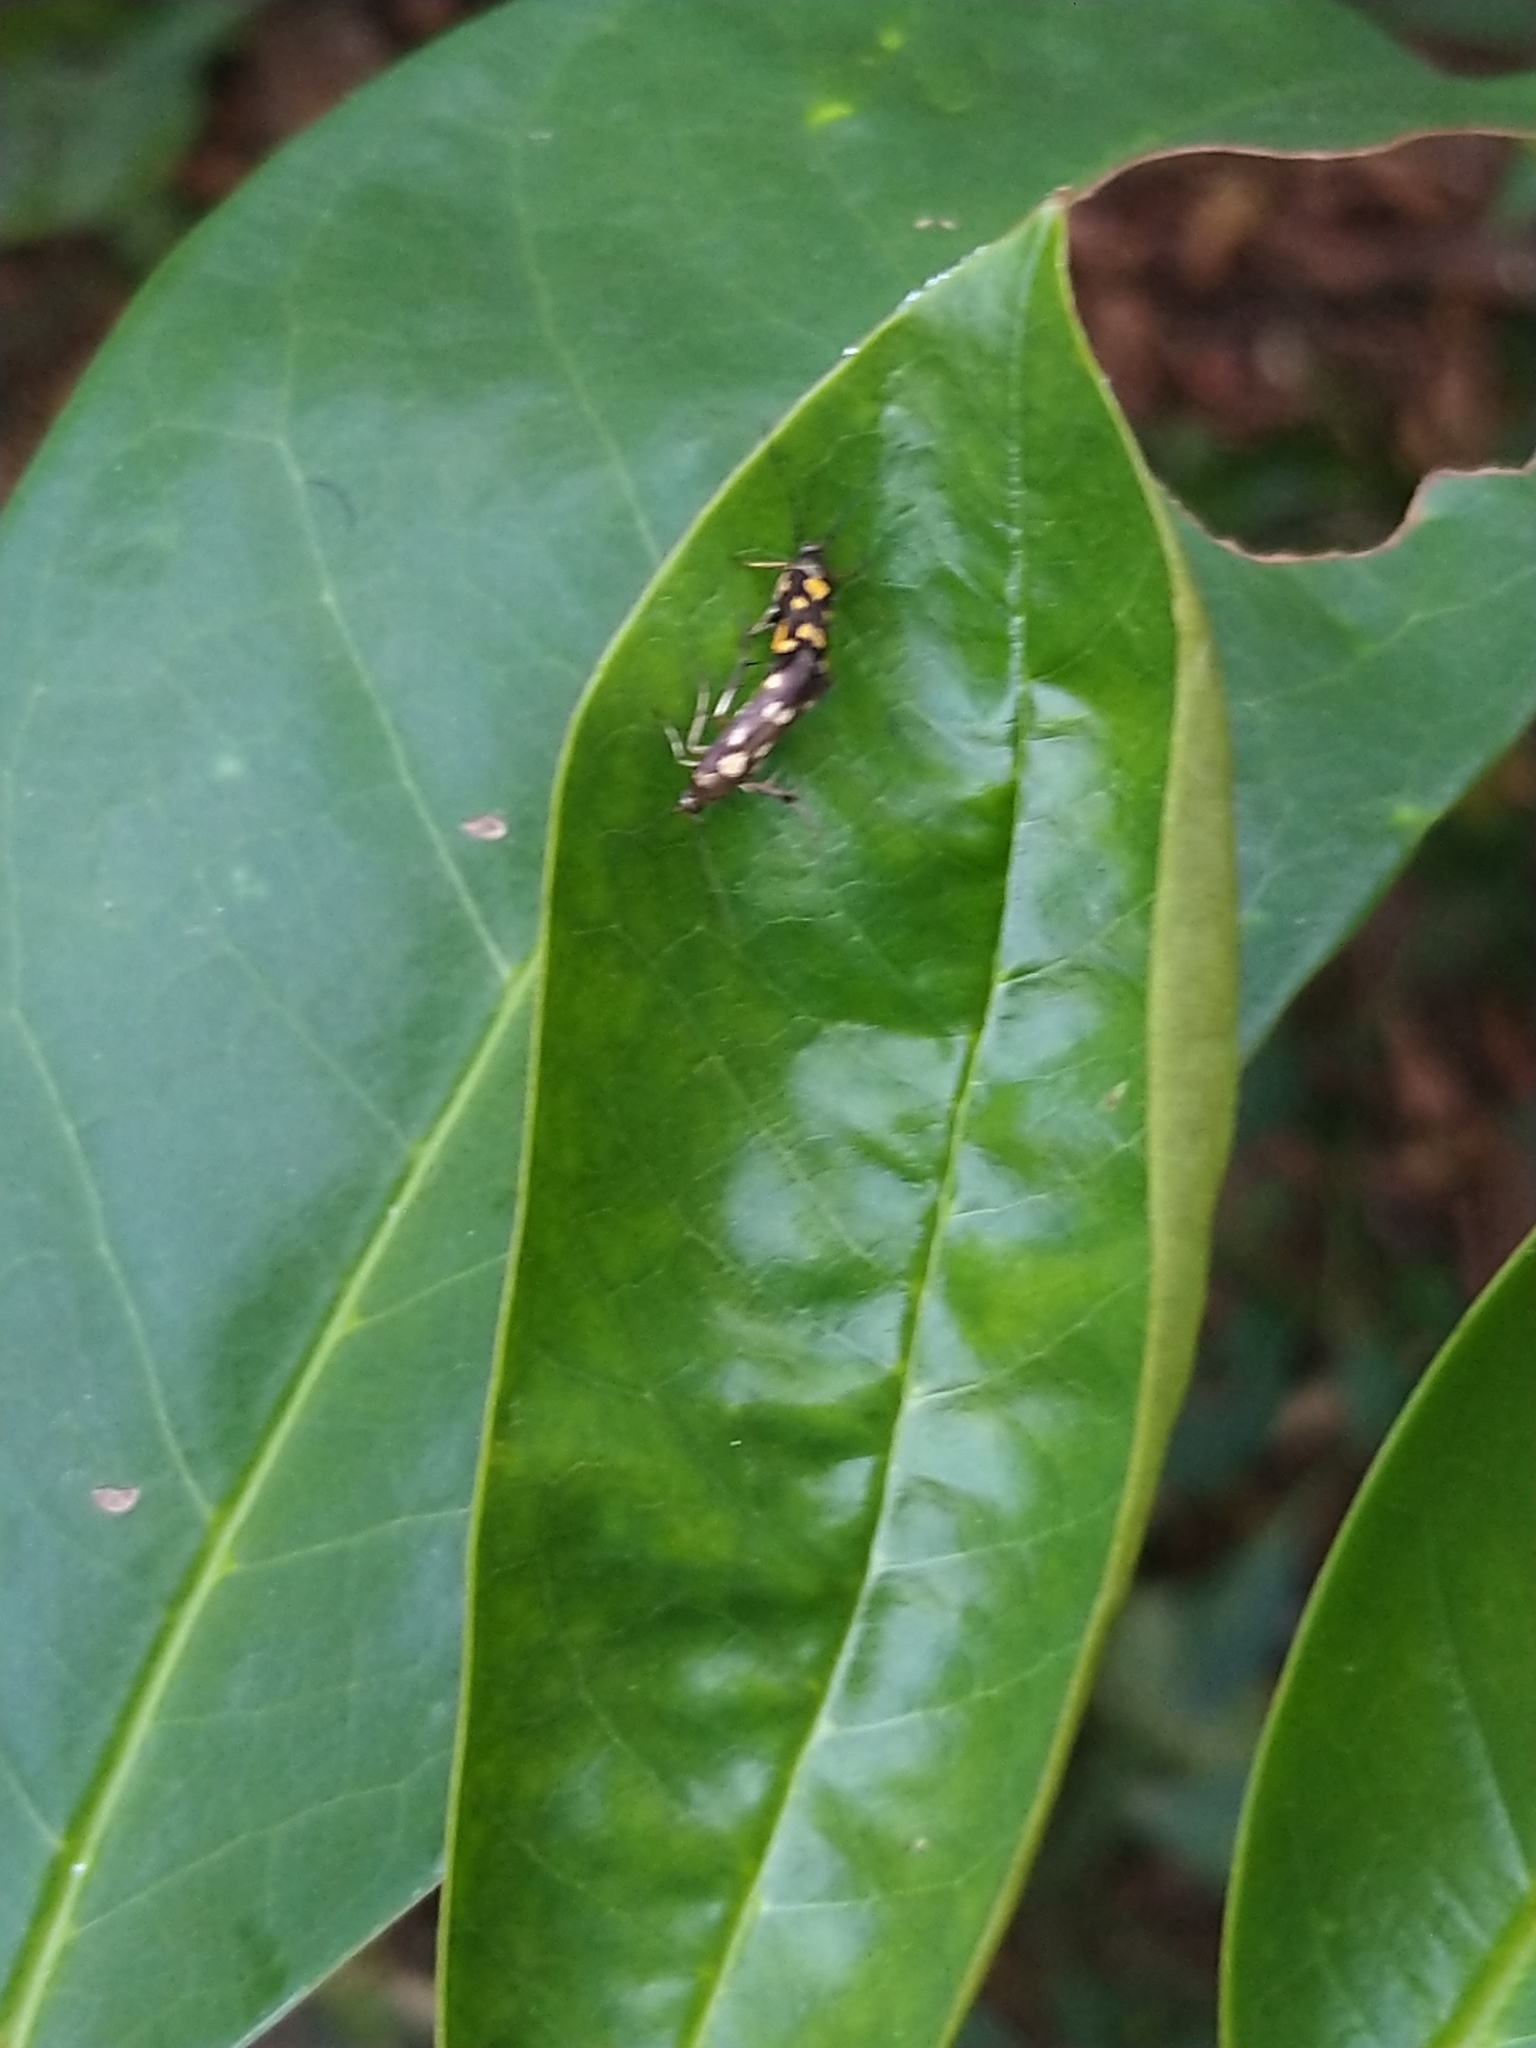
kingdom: Animalia
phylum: Arthropoda
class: Insecta
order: Lepidoptera
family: Scythrididae
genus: Eretmocera
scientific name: Eretmocera impactella
